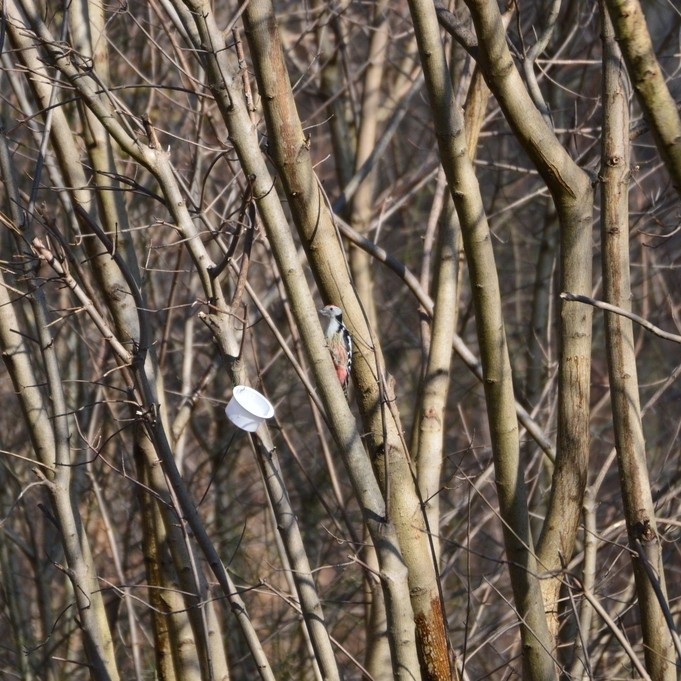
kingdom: Animalia
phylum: Chordata
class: Aves
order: Piciformes
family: Picidae
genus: Dendrocoptes
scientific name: Dendrocoptes medius
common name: Middle spotted woodpecker
